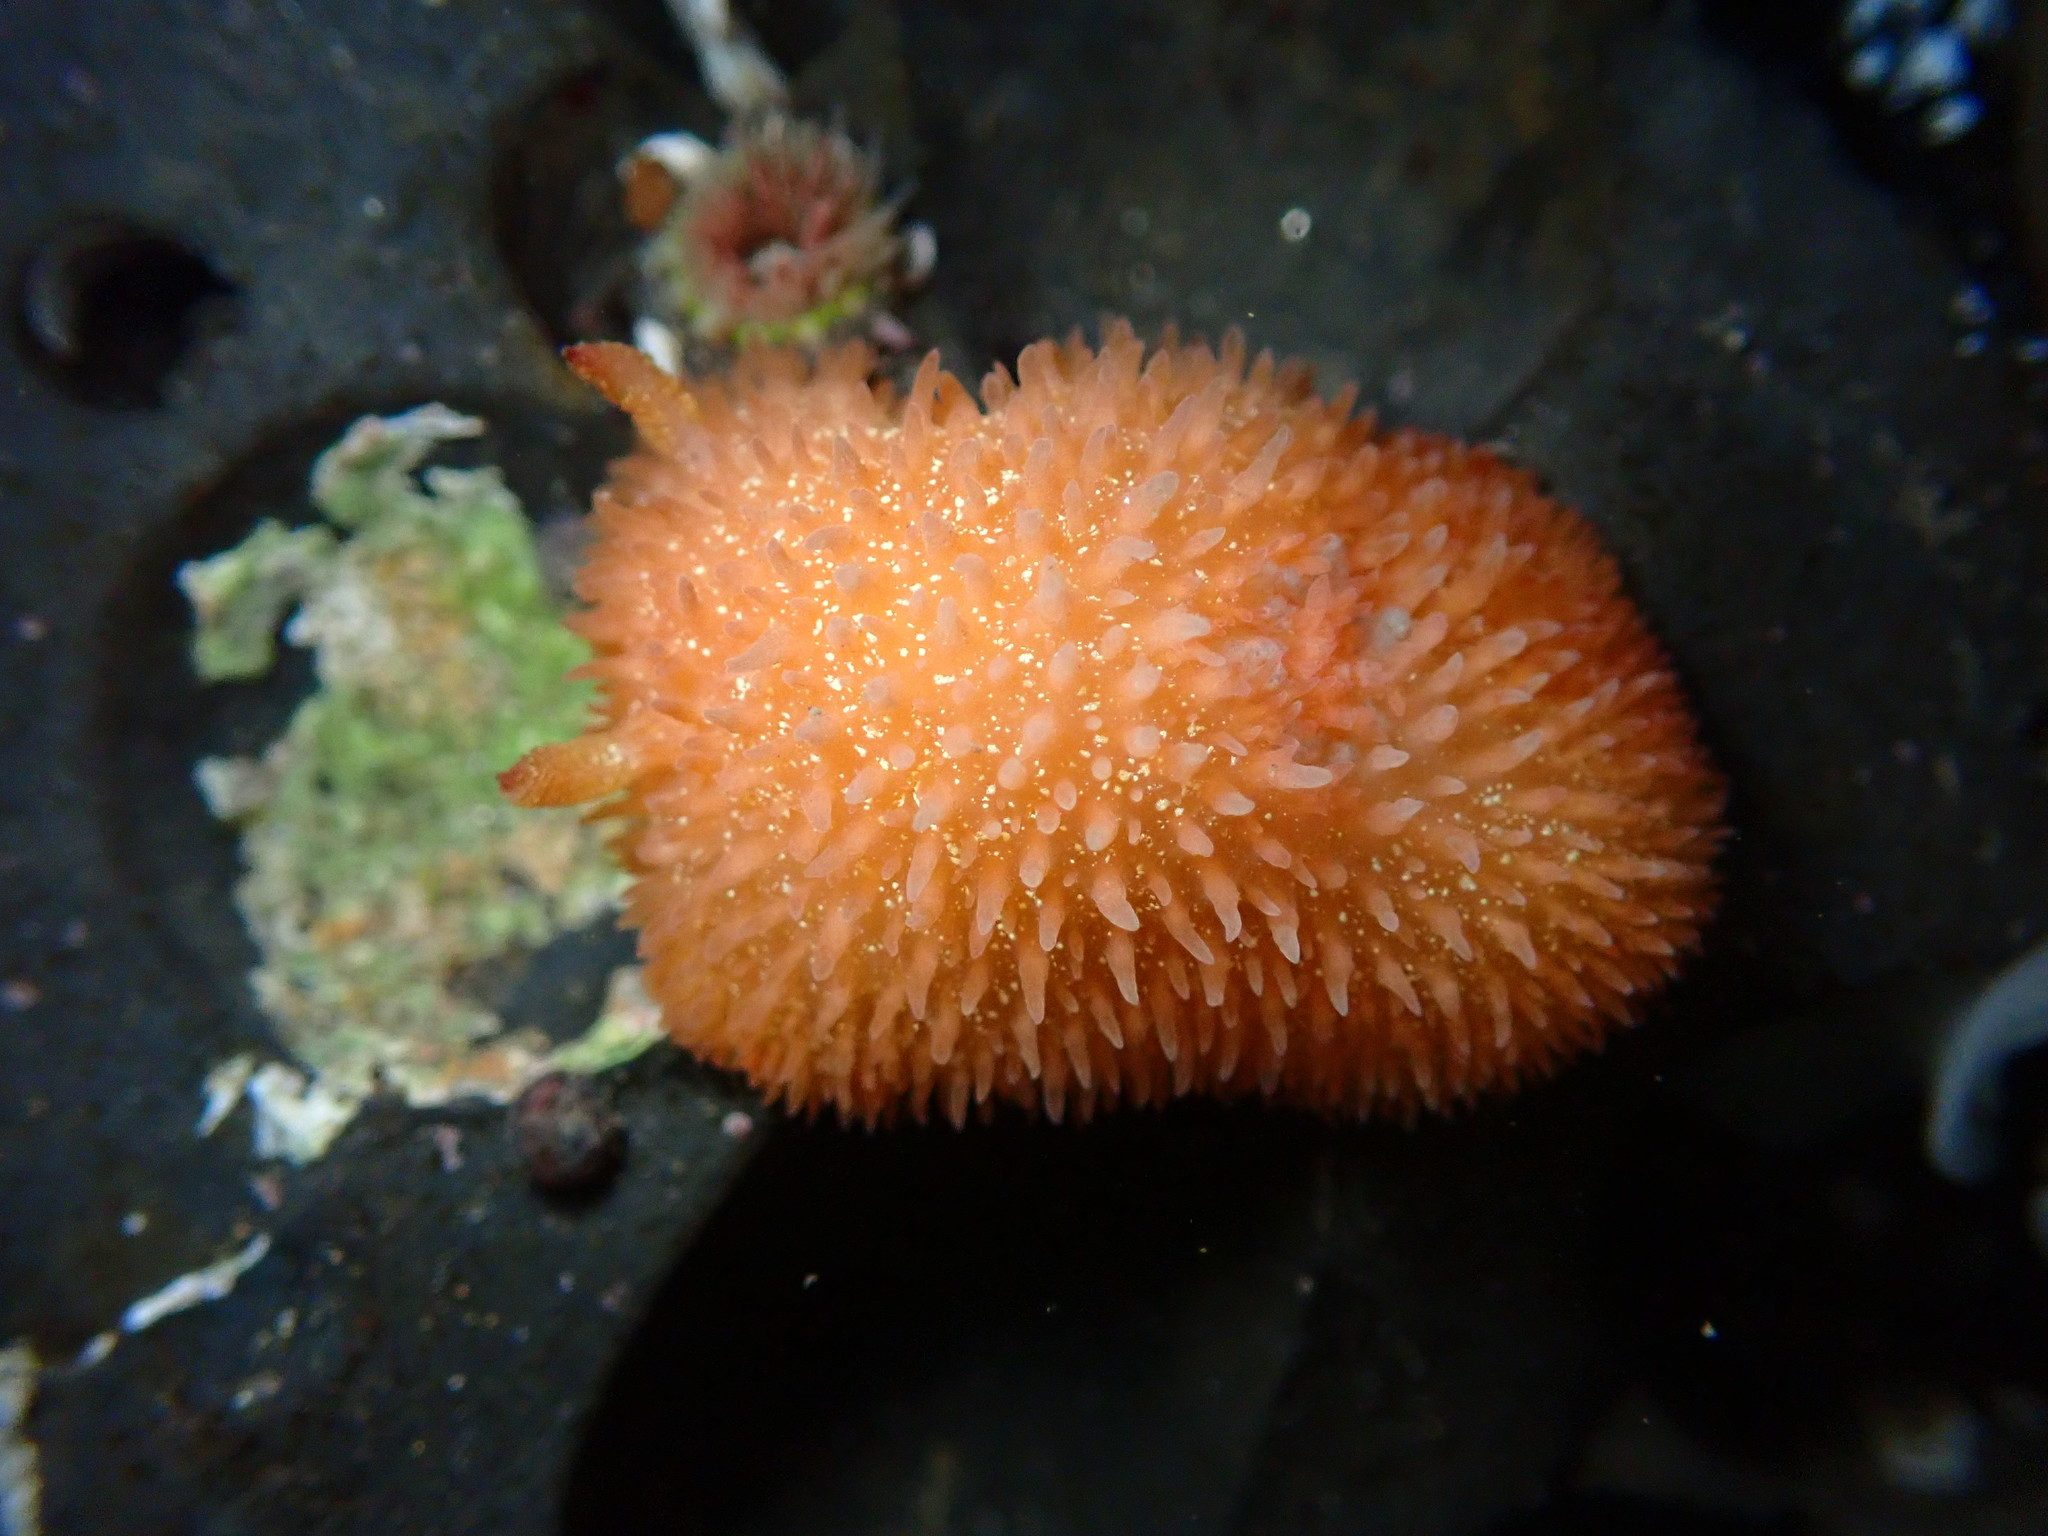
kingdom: Animalia
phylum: Mollusca
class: Gastropoda
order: Nudibranchia
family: Onchidorididae
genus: Acanthodoris
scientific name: Acanthodoris lutea
